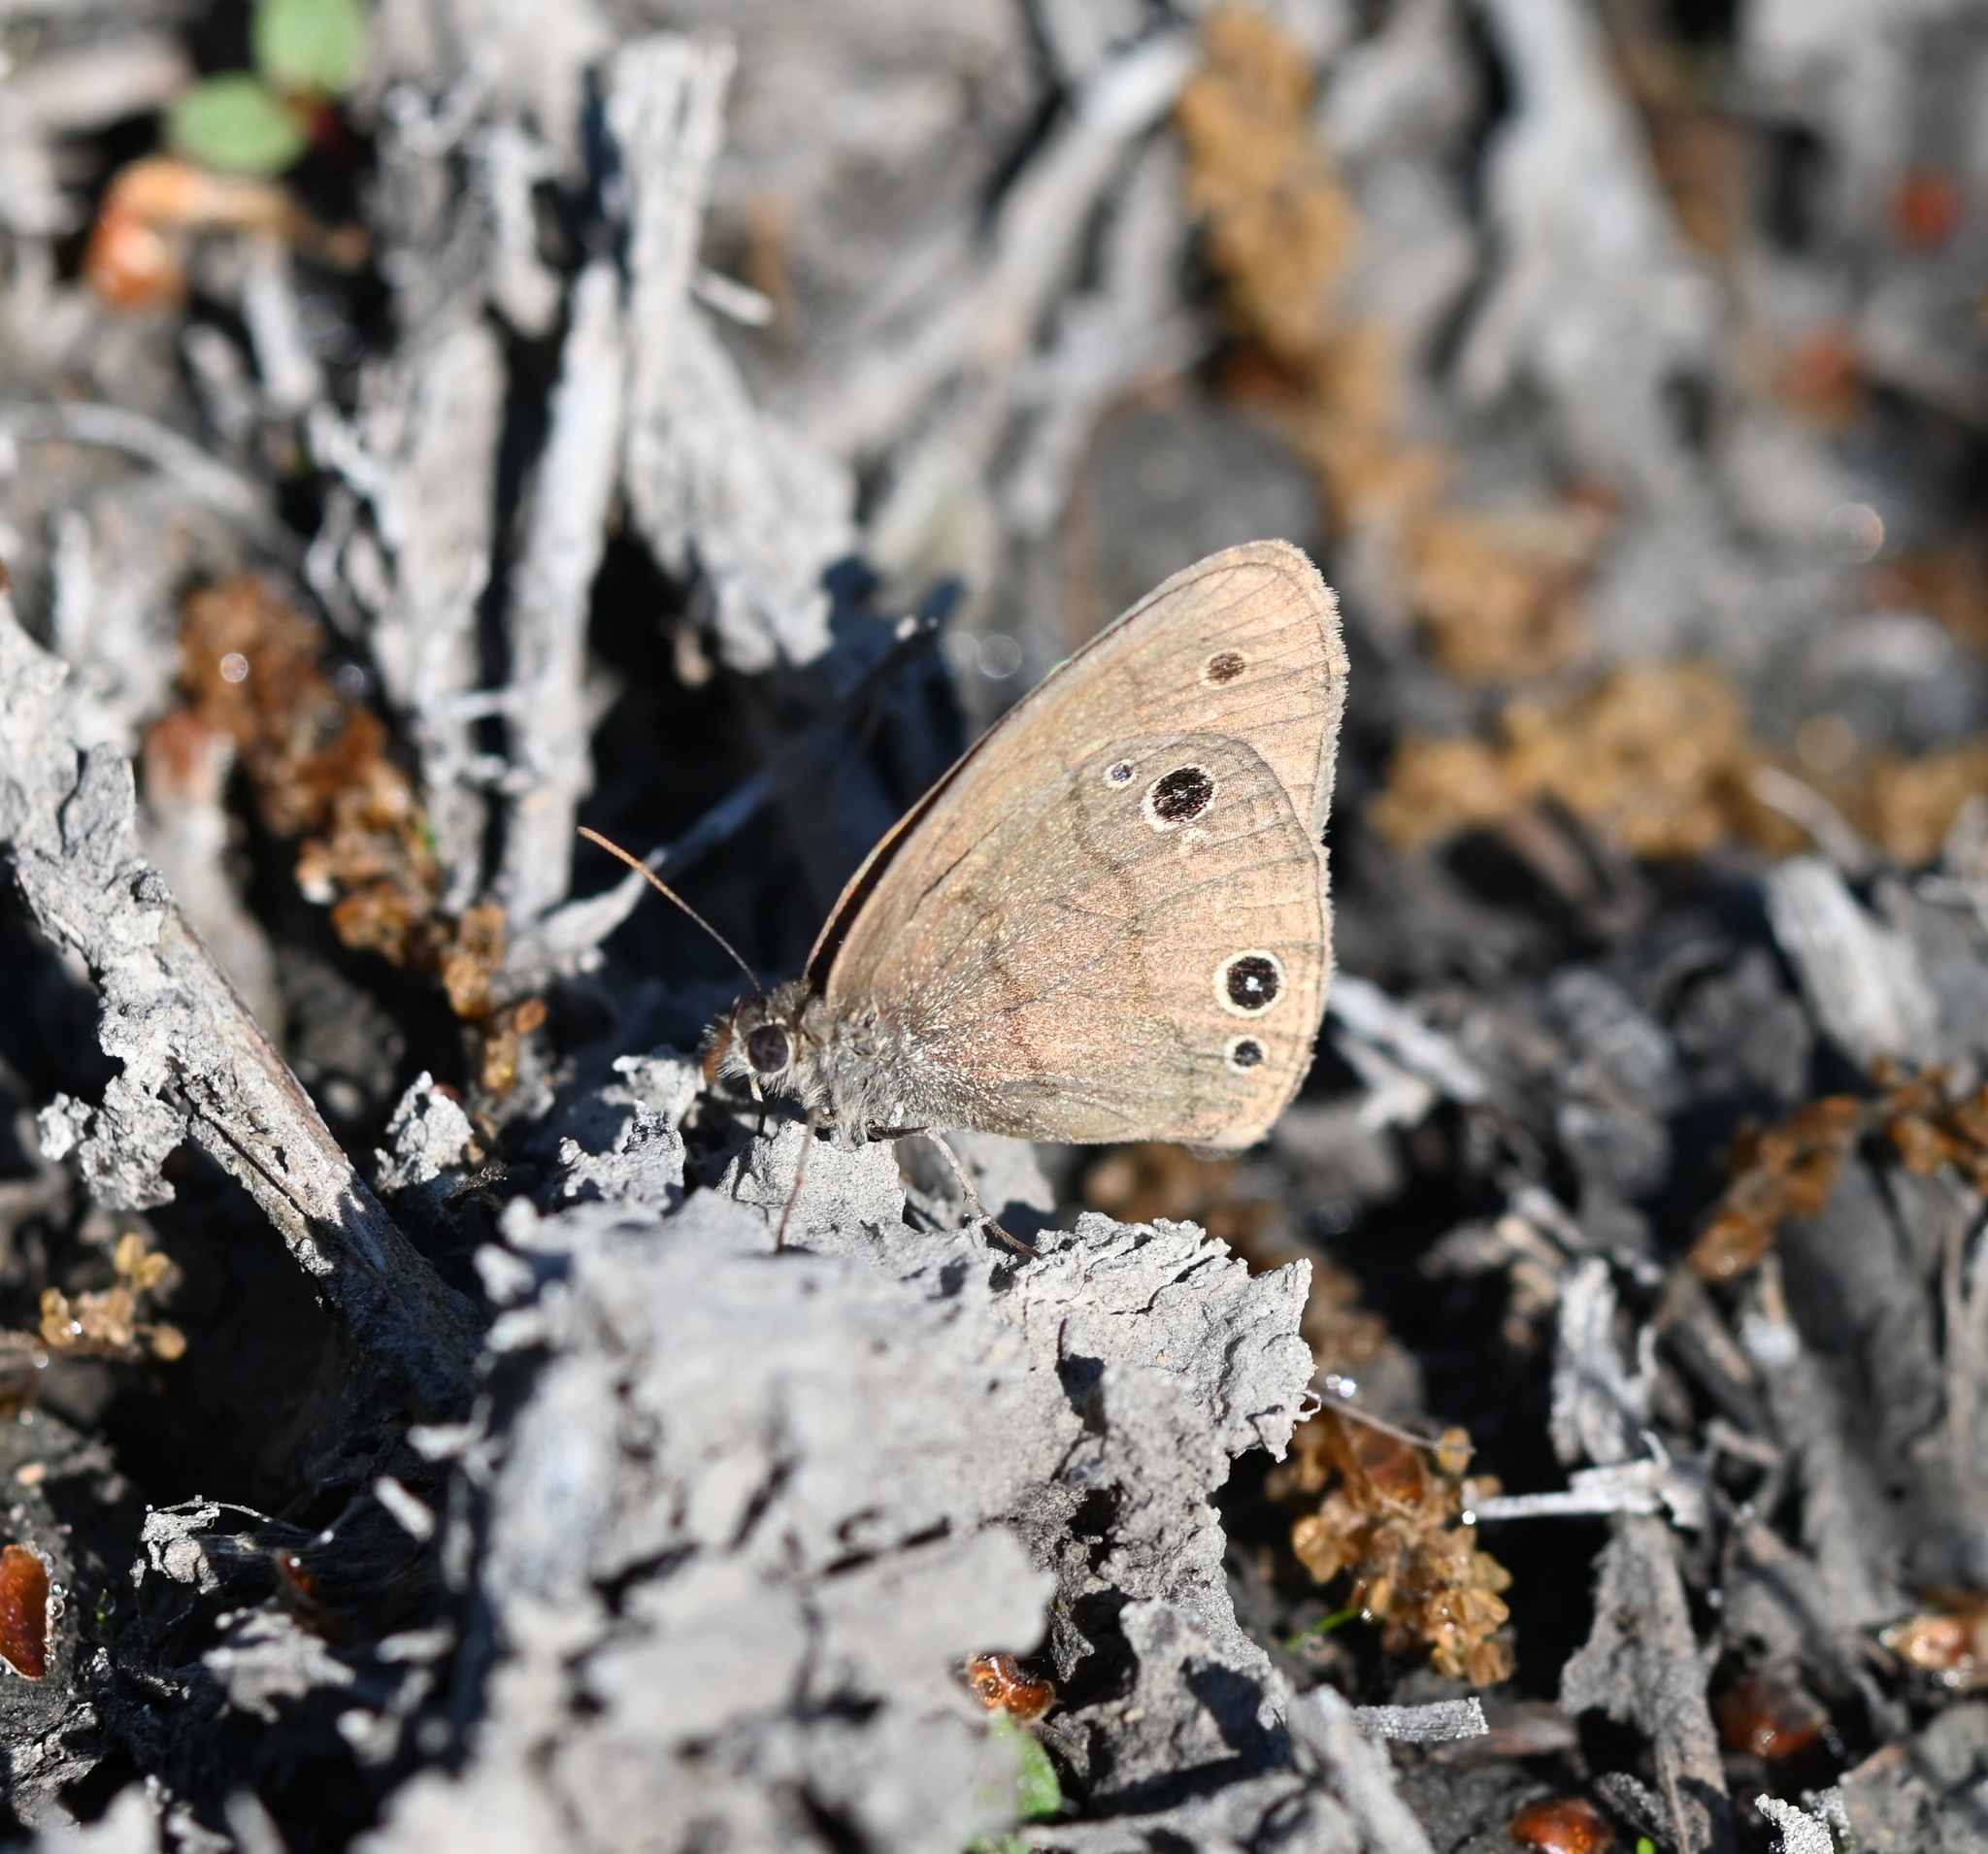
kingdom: Animalia
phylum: Arthropoda
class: Insecta
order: Lepidoptera
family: Nymphalidae
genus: Hermeuptychia
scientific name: Hermeuptychia hermes
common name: Hermes satyr
